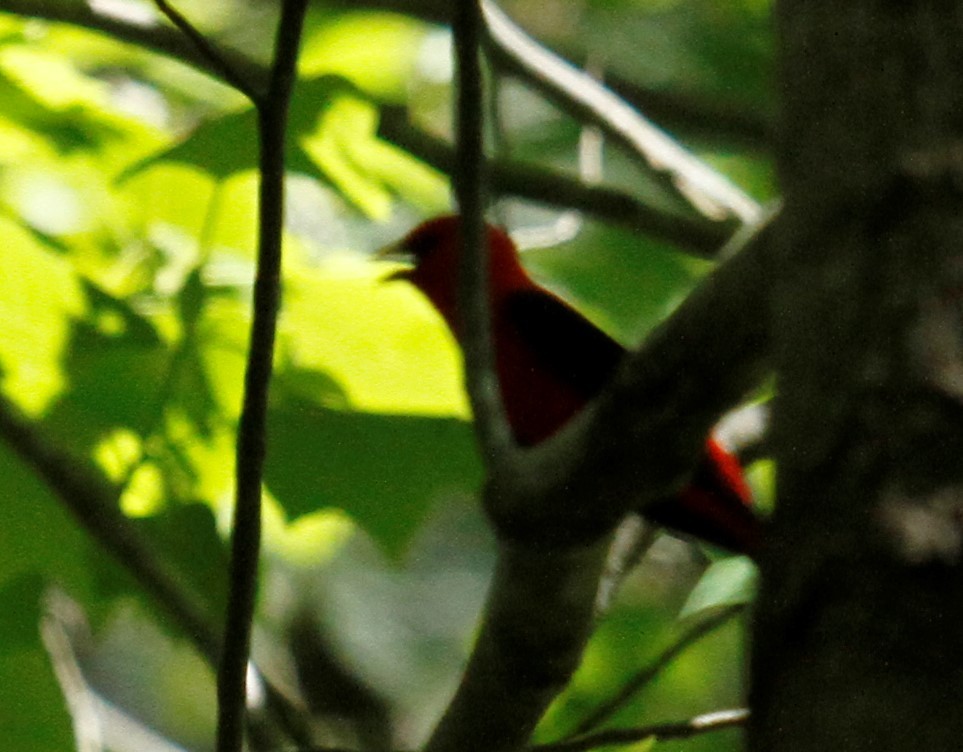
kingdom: Animalia
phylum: Chordata
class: Aves
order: Passeriformes
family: Cardinalidae
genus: Piranga
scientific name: Piranga olivacea
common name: Scarlet tanager
